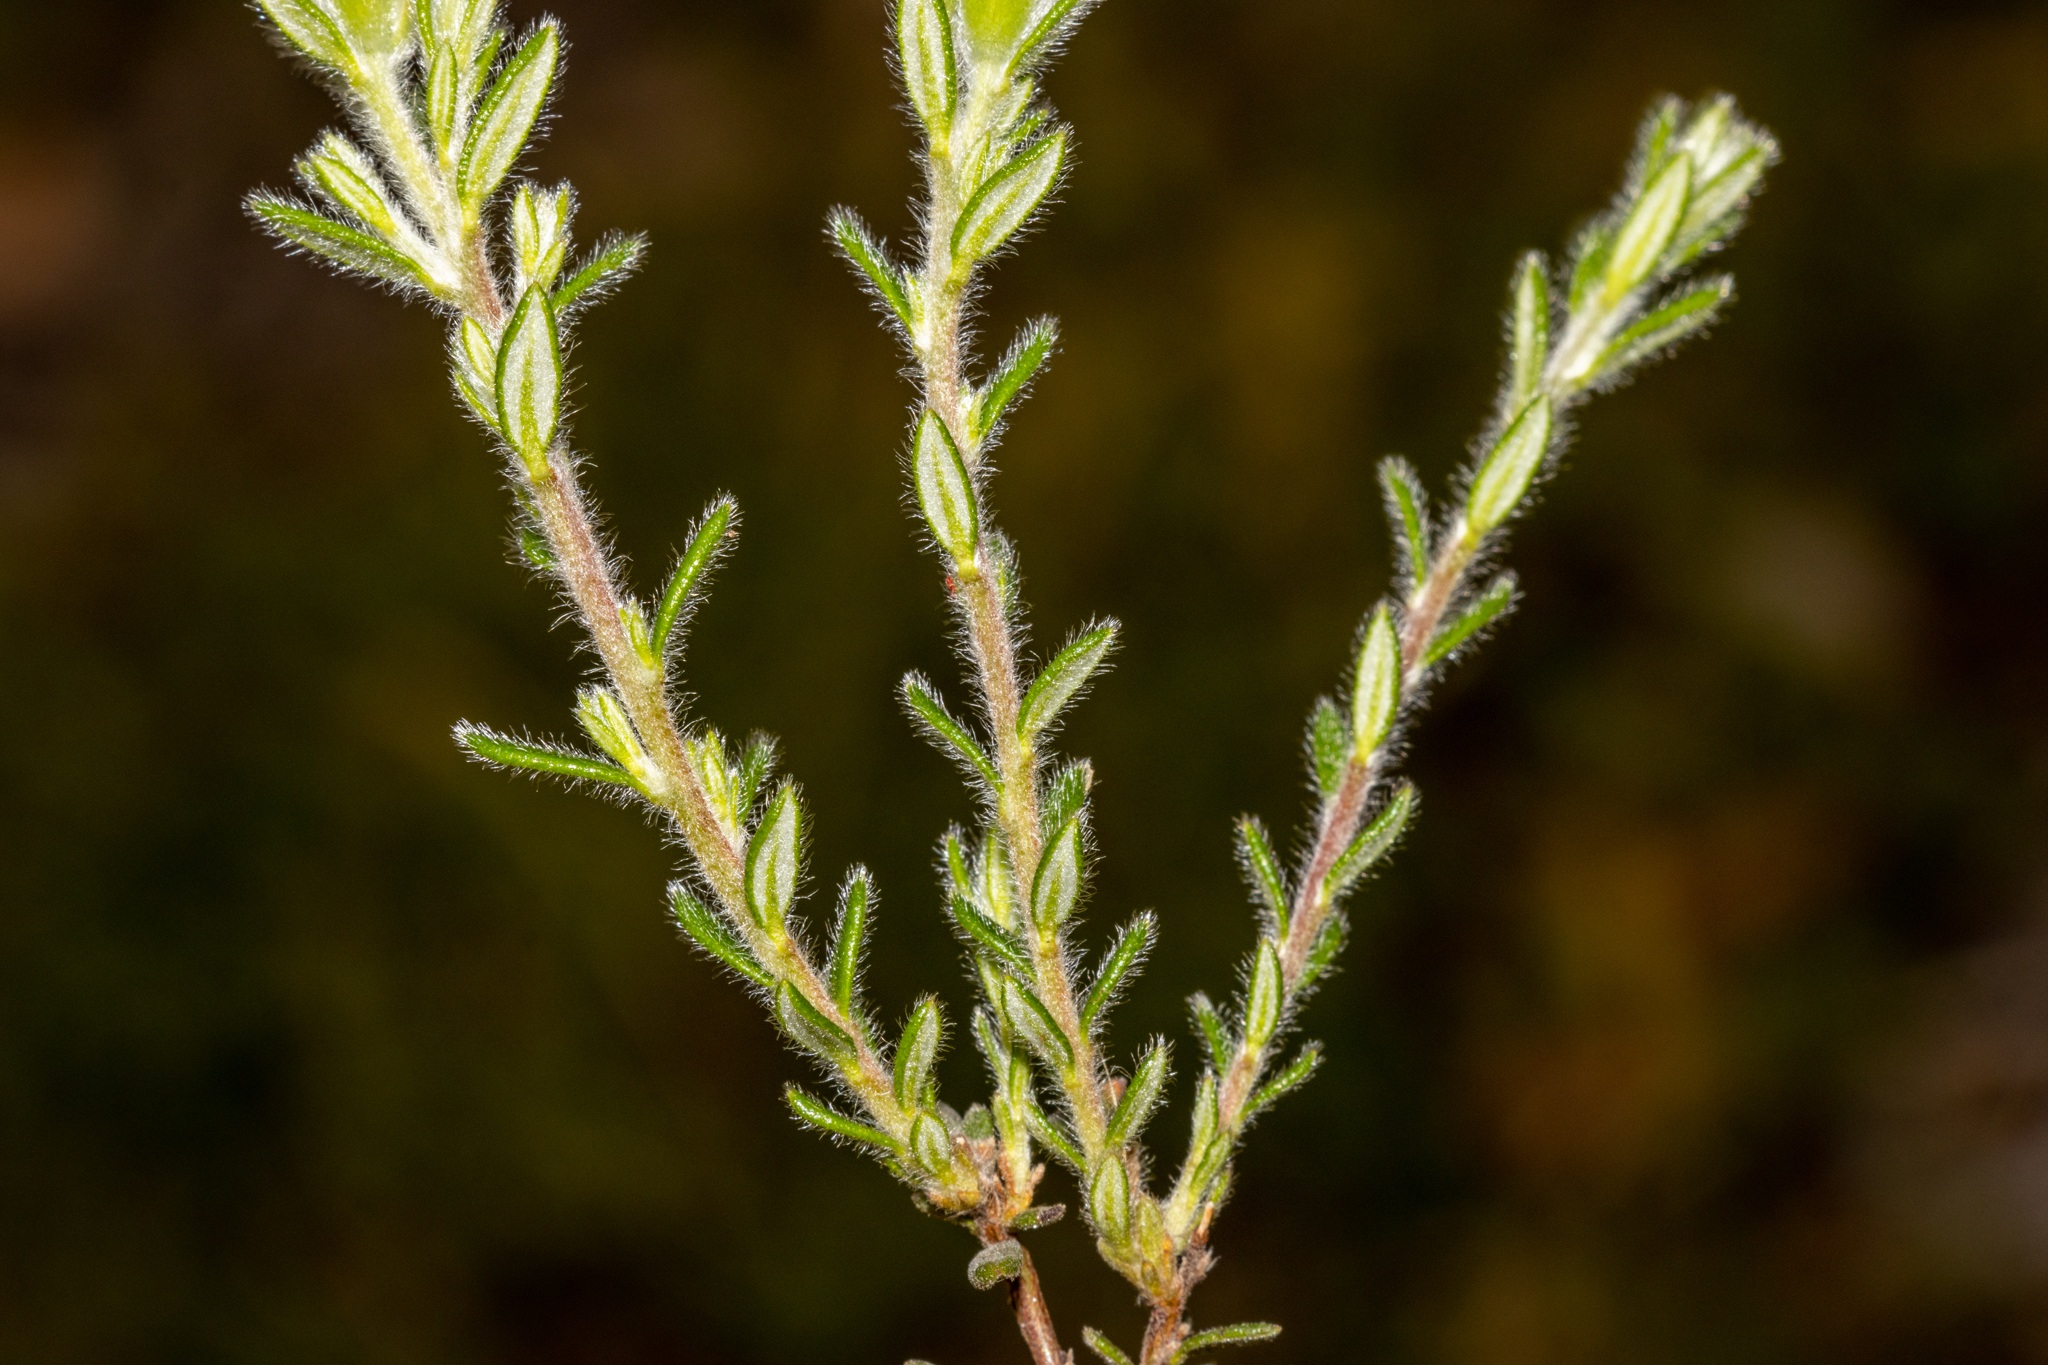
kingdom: Plantae
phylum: Tracheophyta
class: Magnoliopsida
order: Dilleniales
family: Dilleniaceae
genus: Hibbertia
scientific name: Hibbertia sericea
